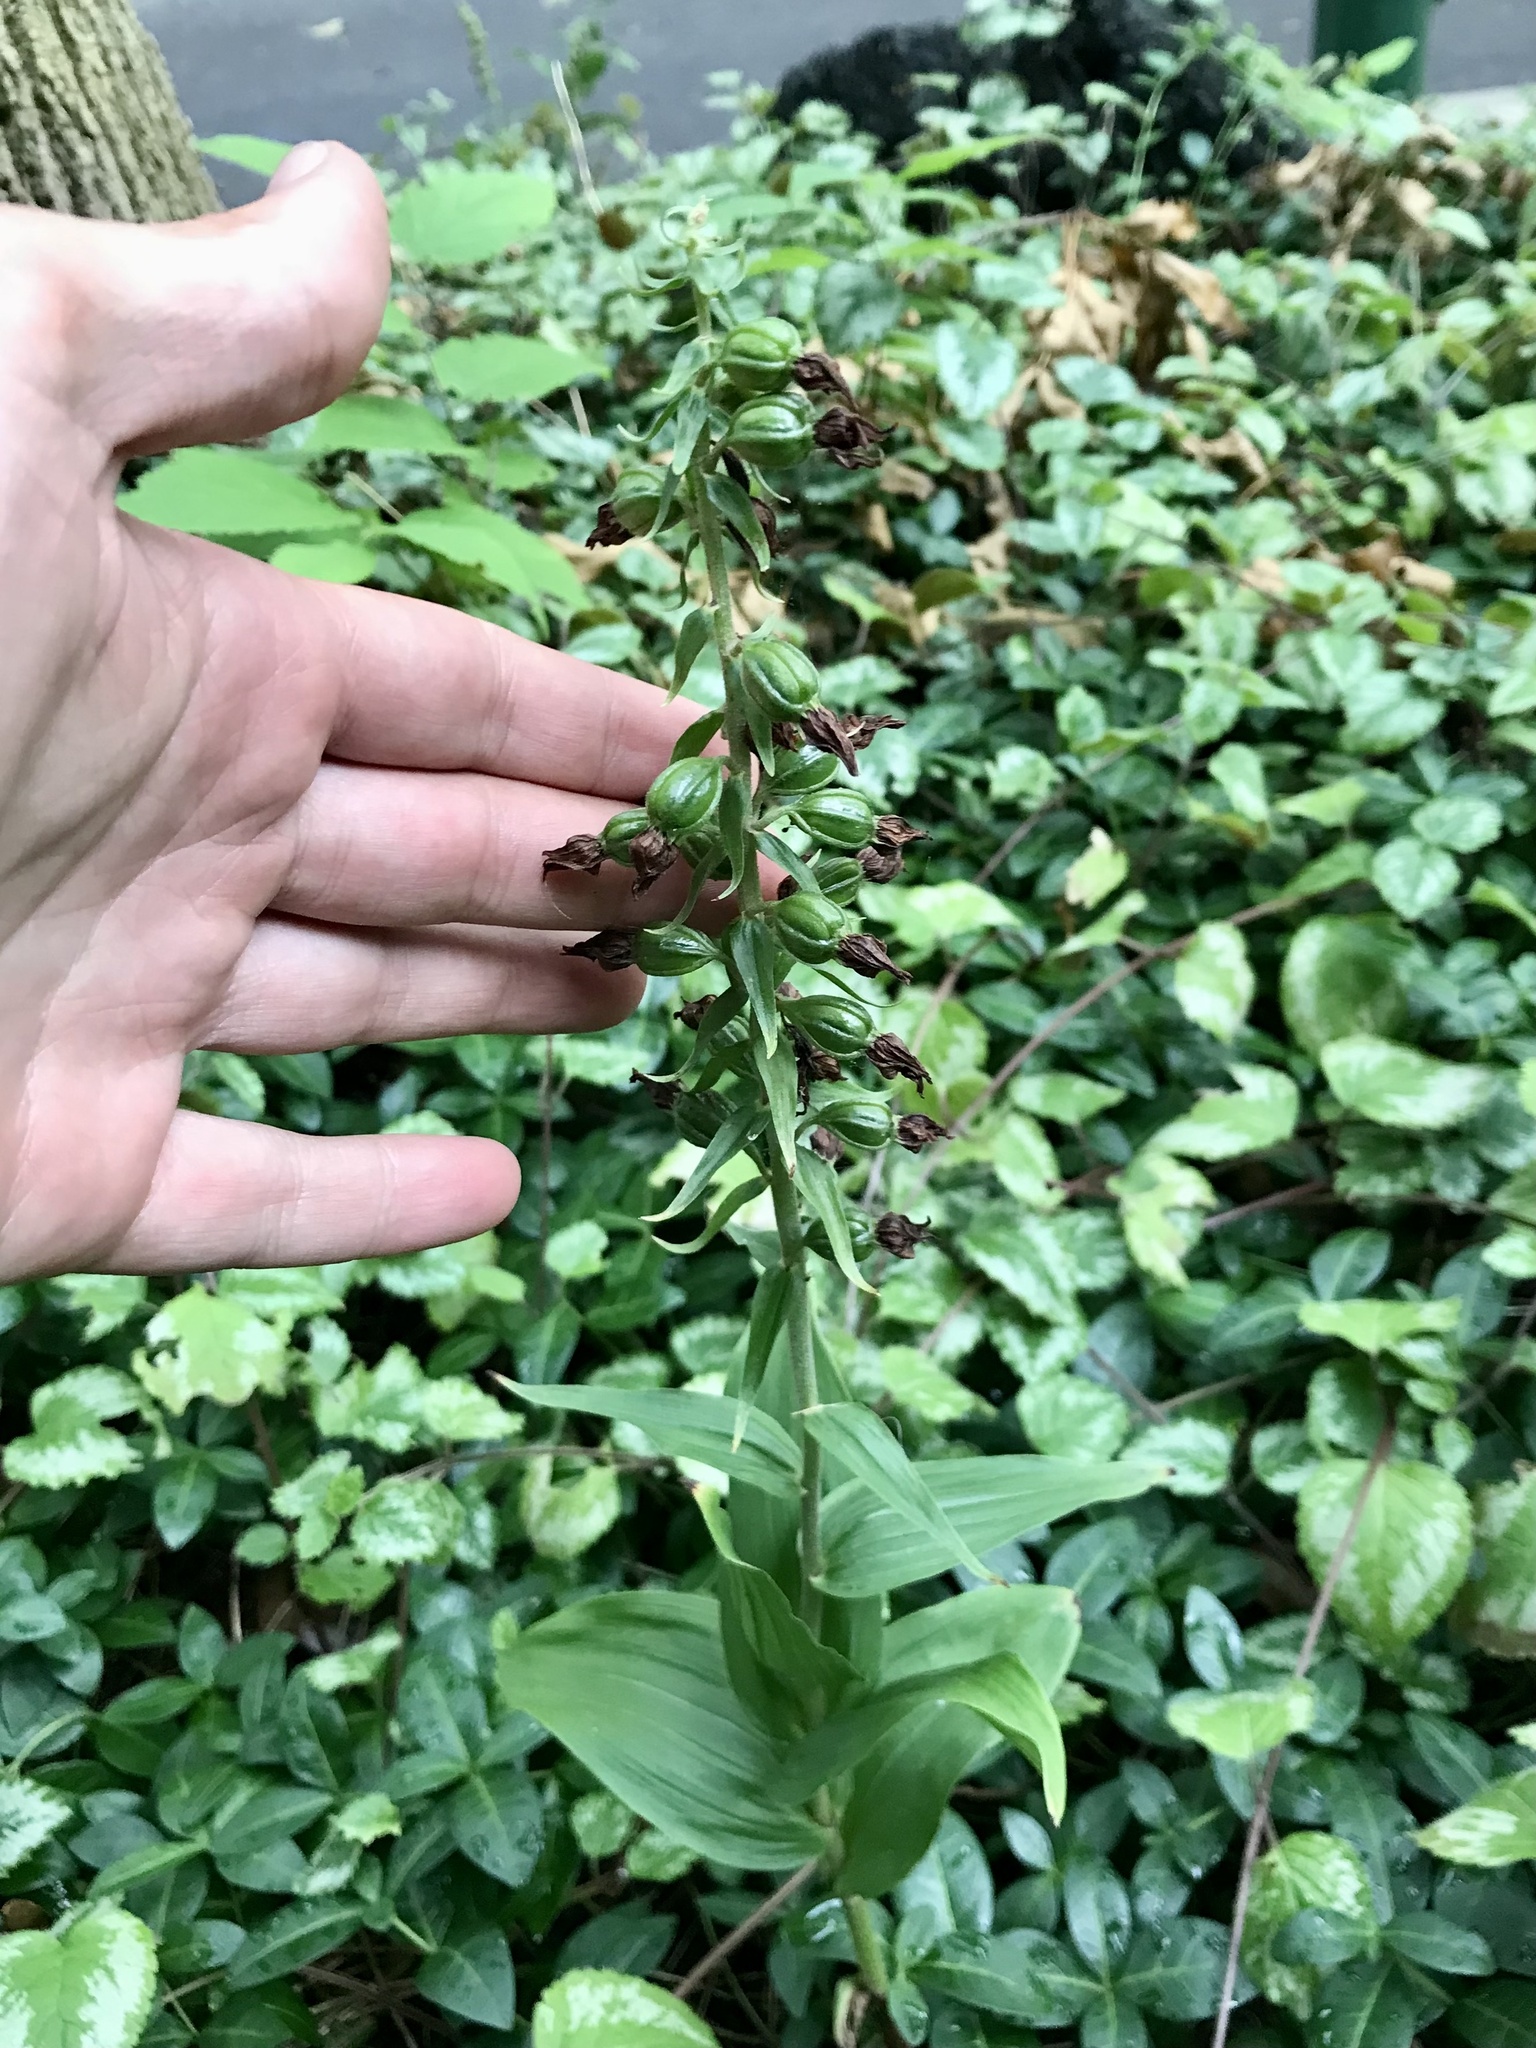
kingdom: Plantae
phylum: Tracheophyta
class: Liliopsida
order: Asparagales
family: Orchidaceae
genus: Epipactis
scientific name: Epipactis helleborine
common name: Broad-leaved helleborine
